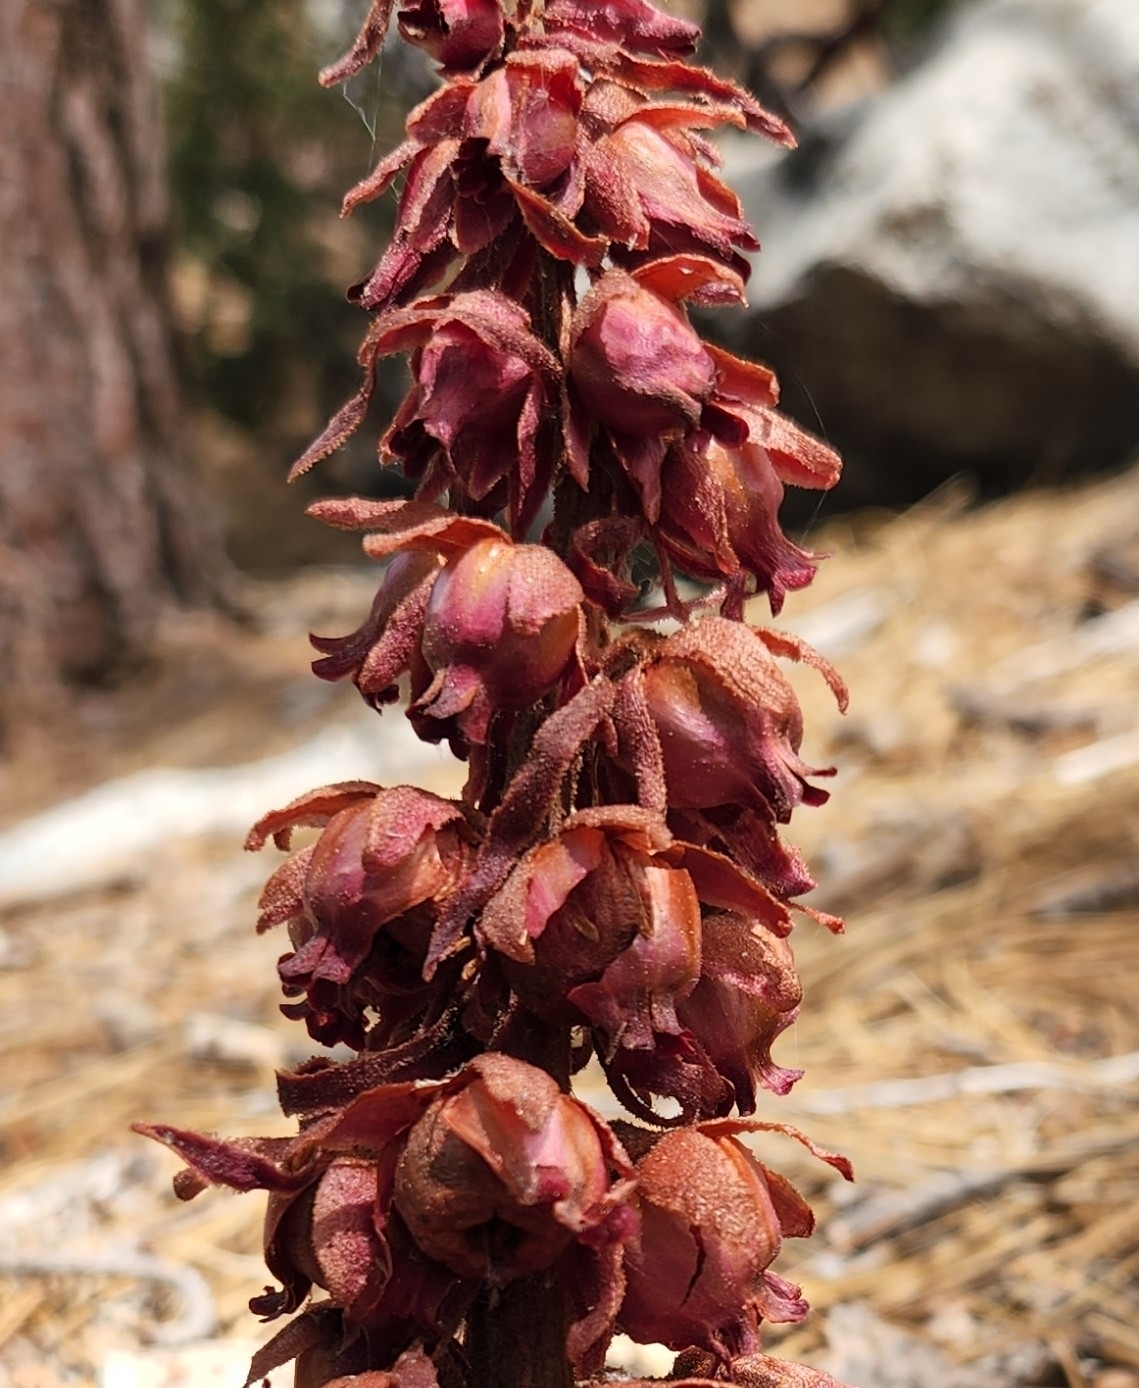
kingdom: Plantae
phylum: Tracheophyta
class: Magnoliopsida
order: Ericales
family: Ericaceae
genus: Sarcodes
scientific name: Sarcodes sanguinea
